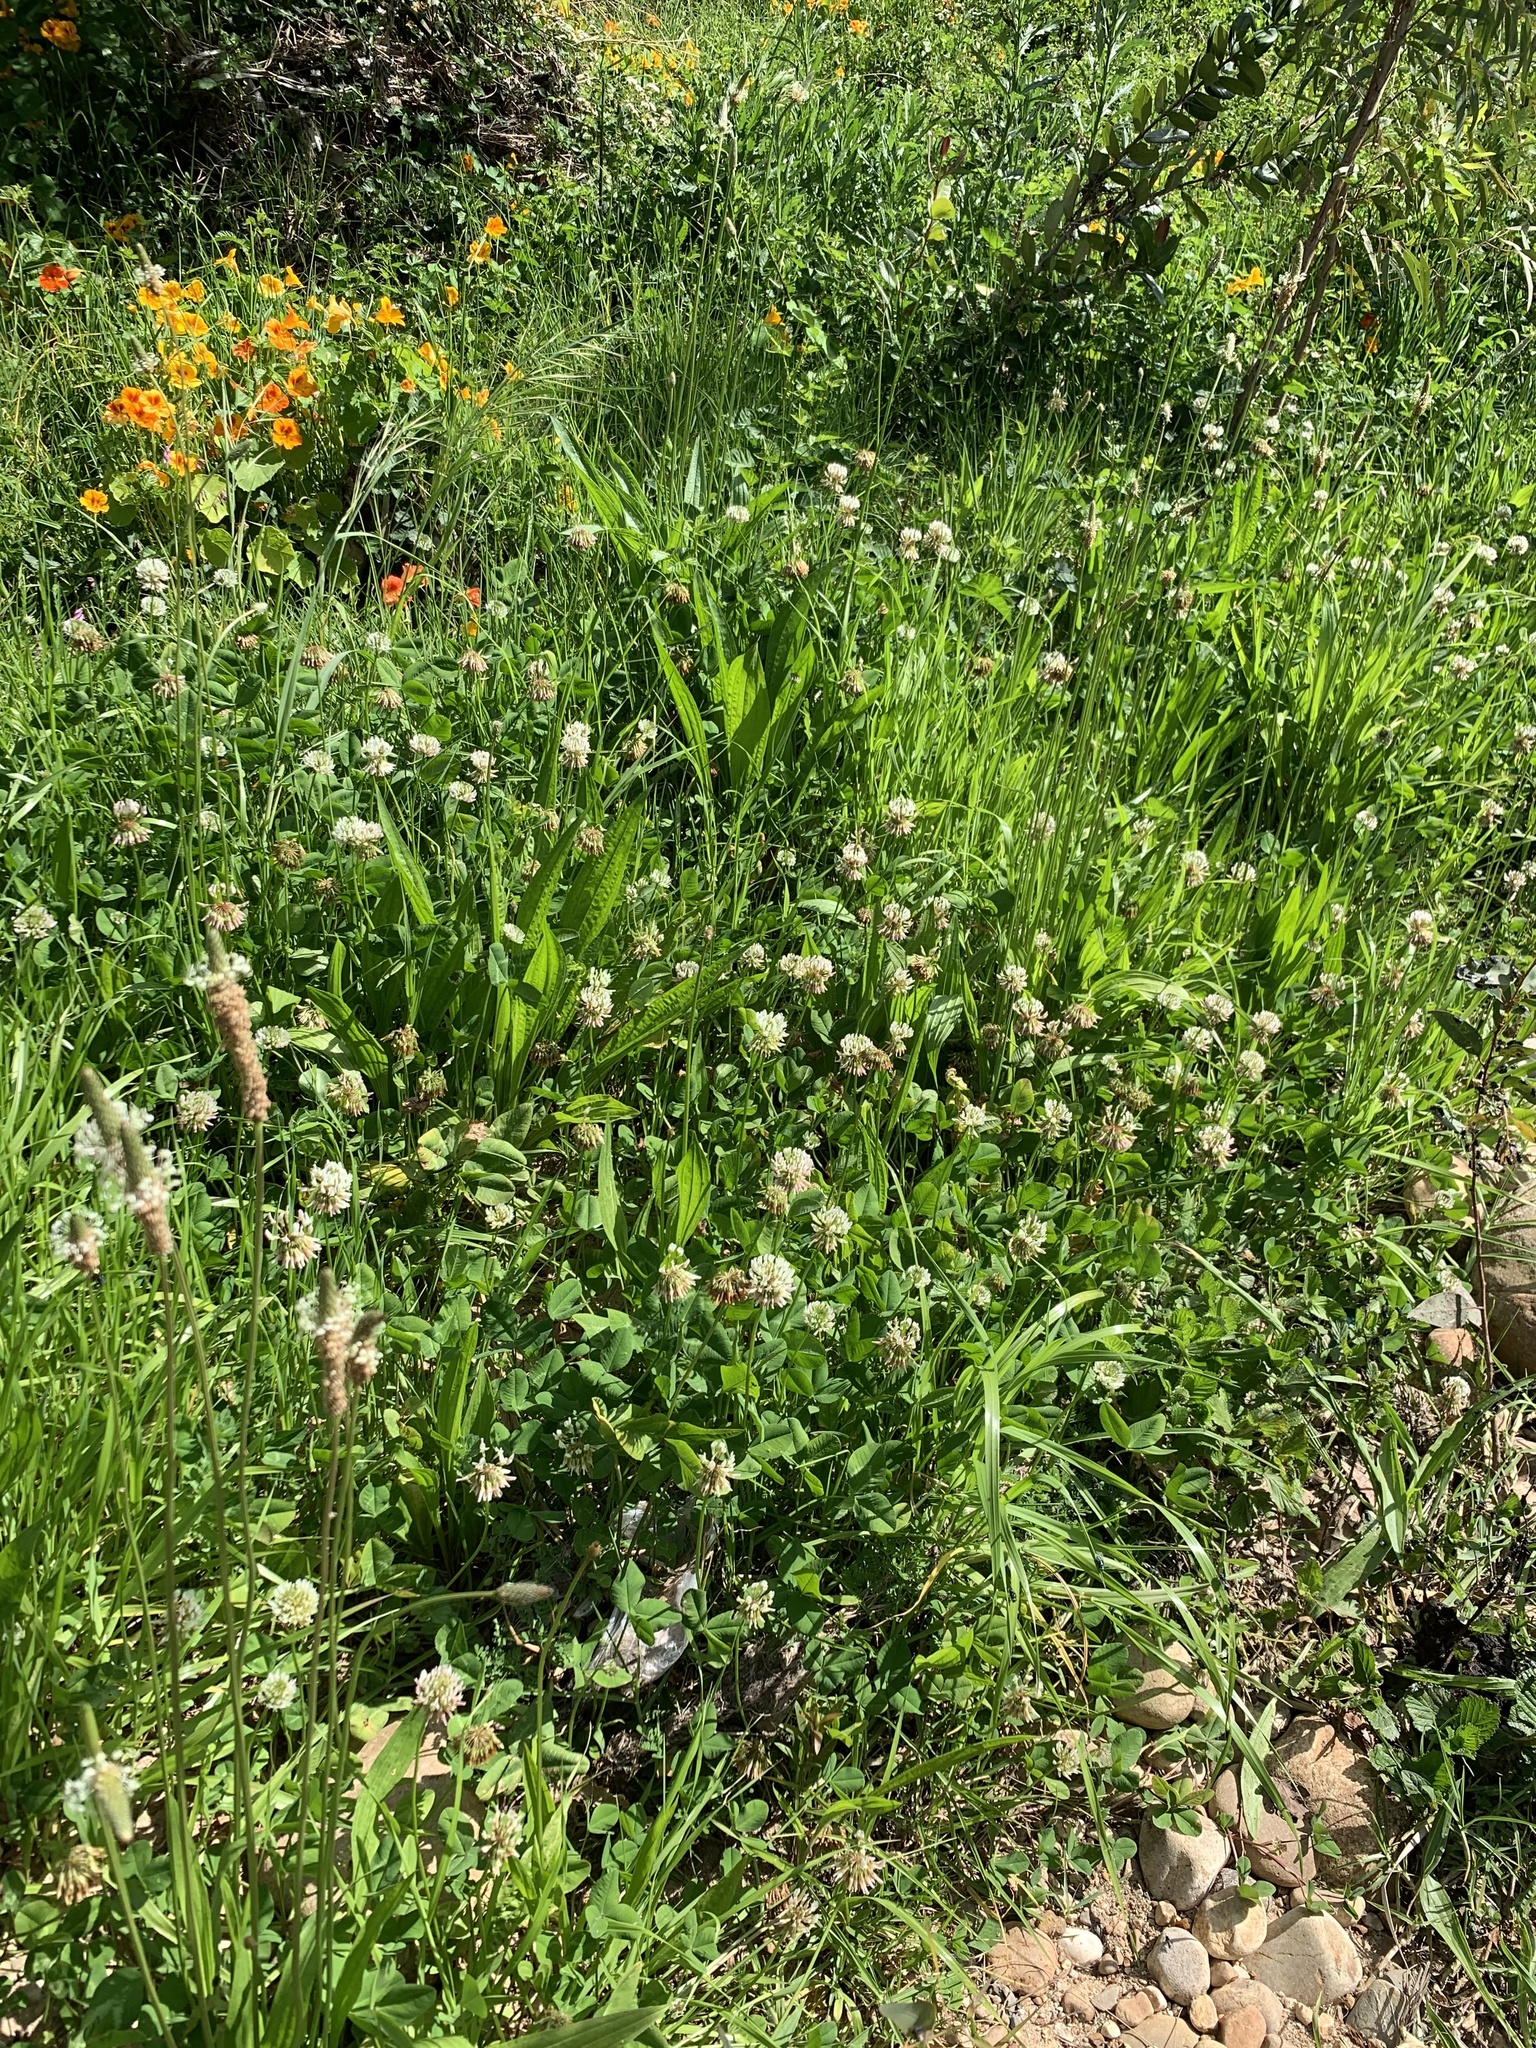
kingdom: Plantae
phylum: Tracheophyta
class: Magnoliopsida
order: Fabales
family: Fabaceae
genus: Trifolium
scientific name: Trifolium repens
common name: White clover
